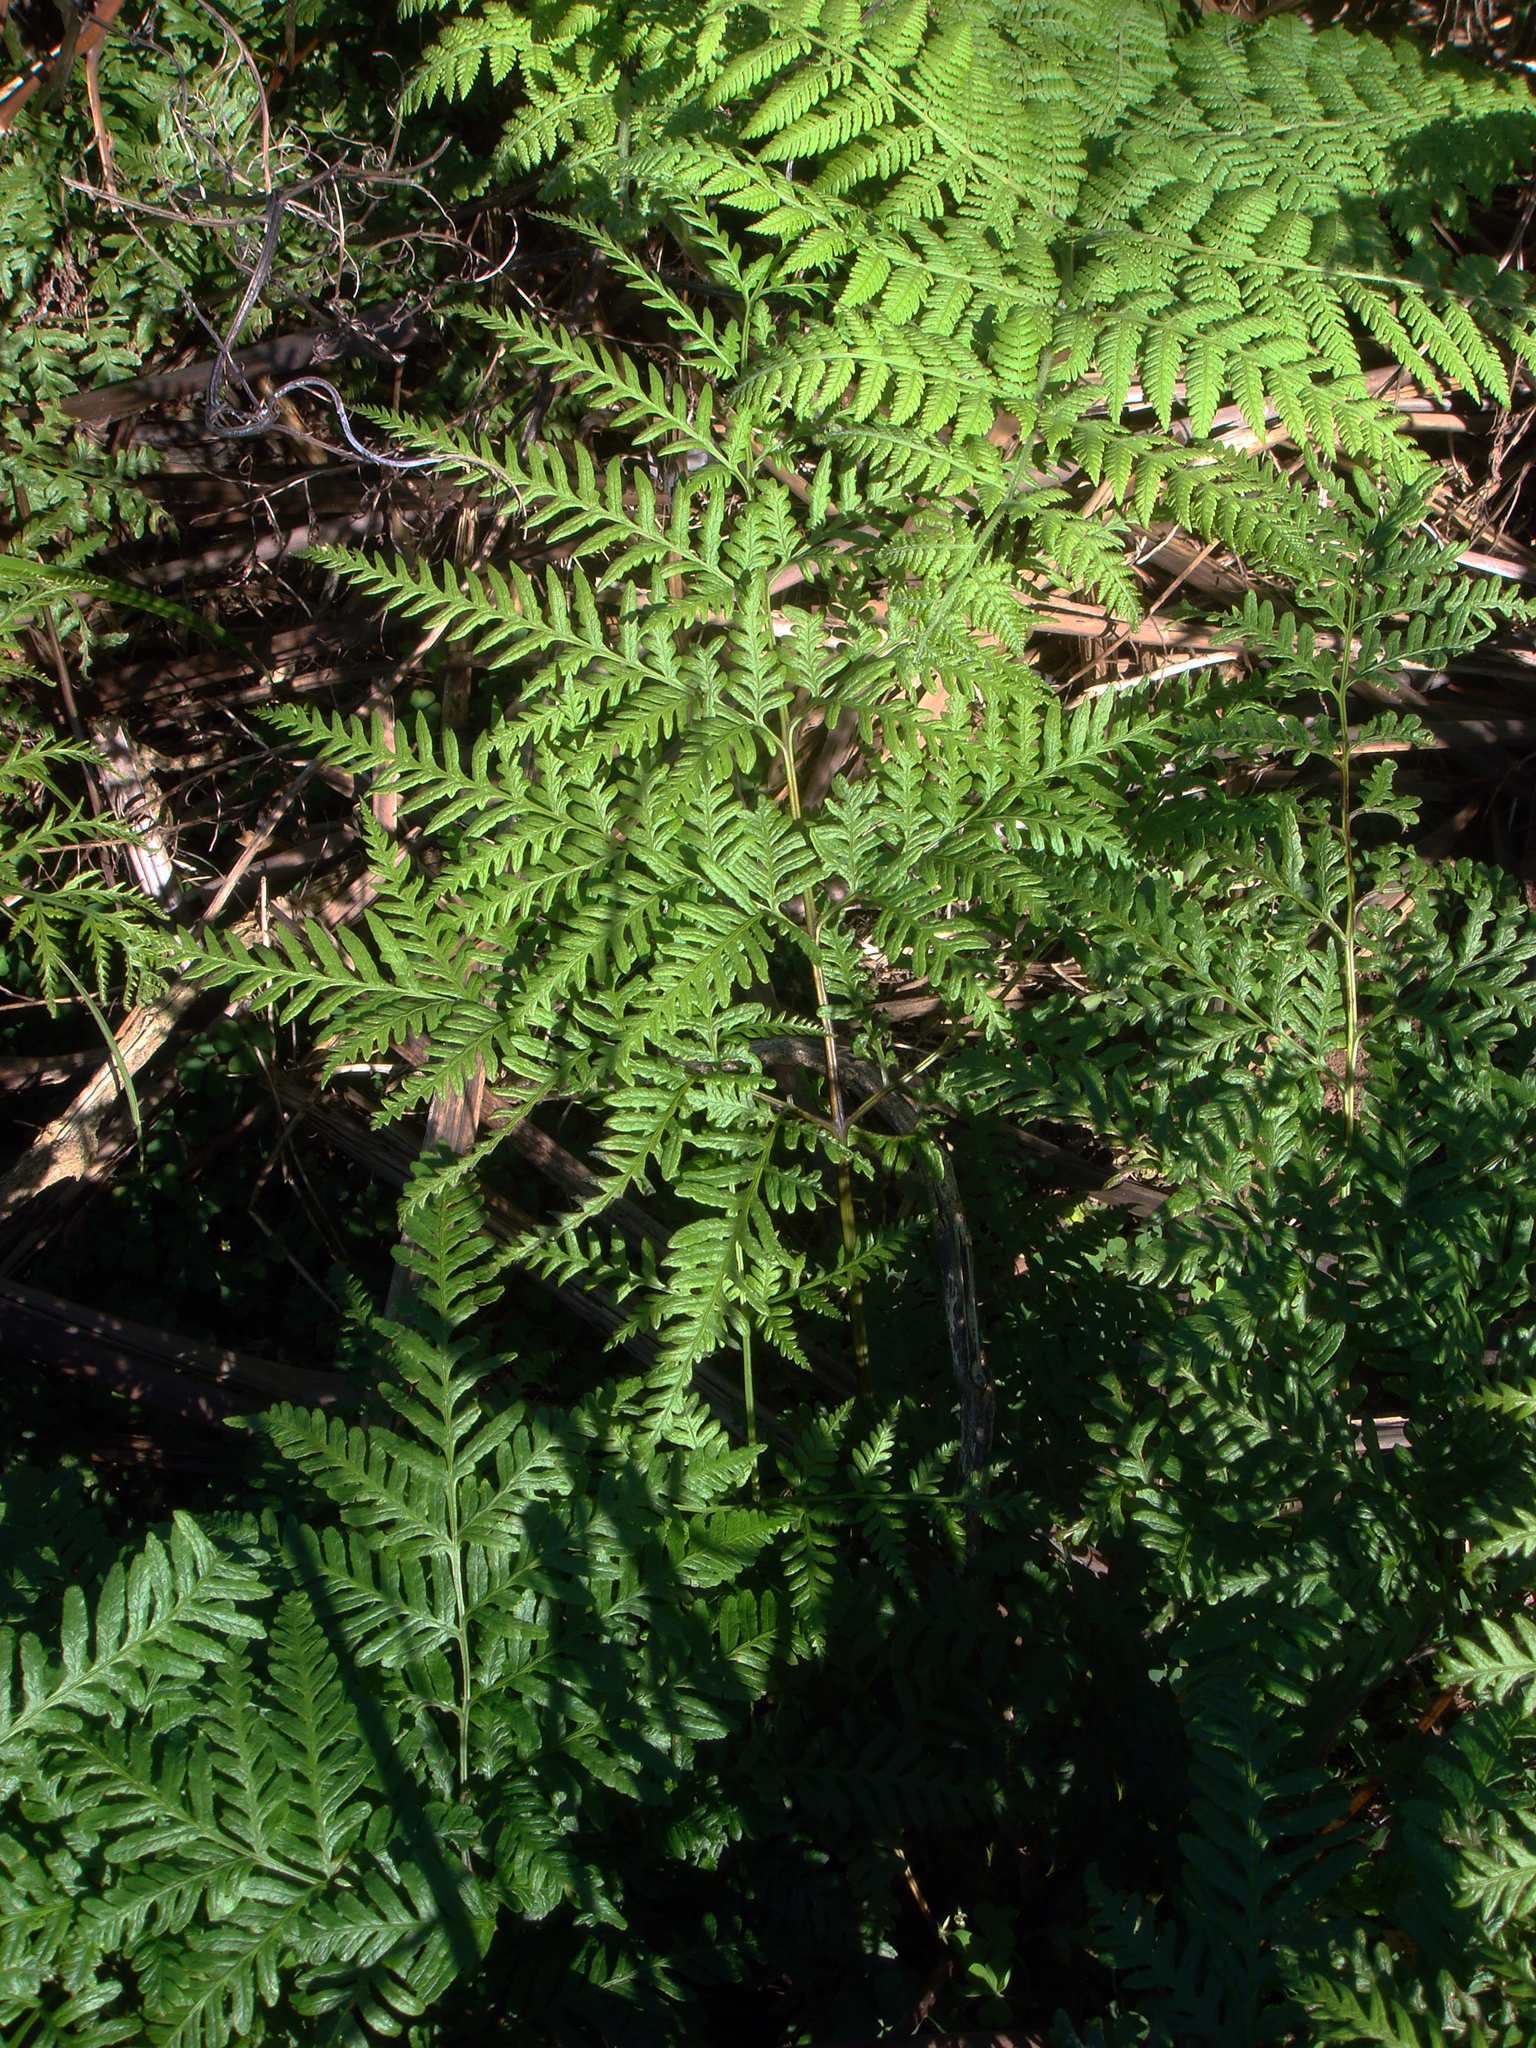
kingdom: Plantae
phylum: Tracheophyta
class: Polypodiopsida
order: Polypodiales
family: Pteridaceae
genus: Pteris
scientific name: Pteris tremula
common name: Australian brake
